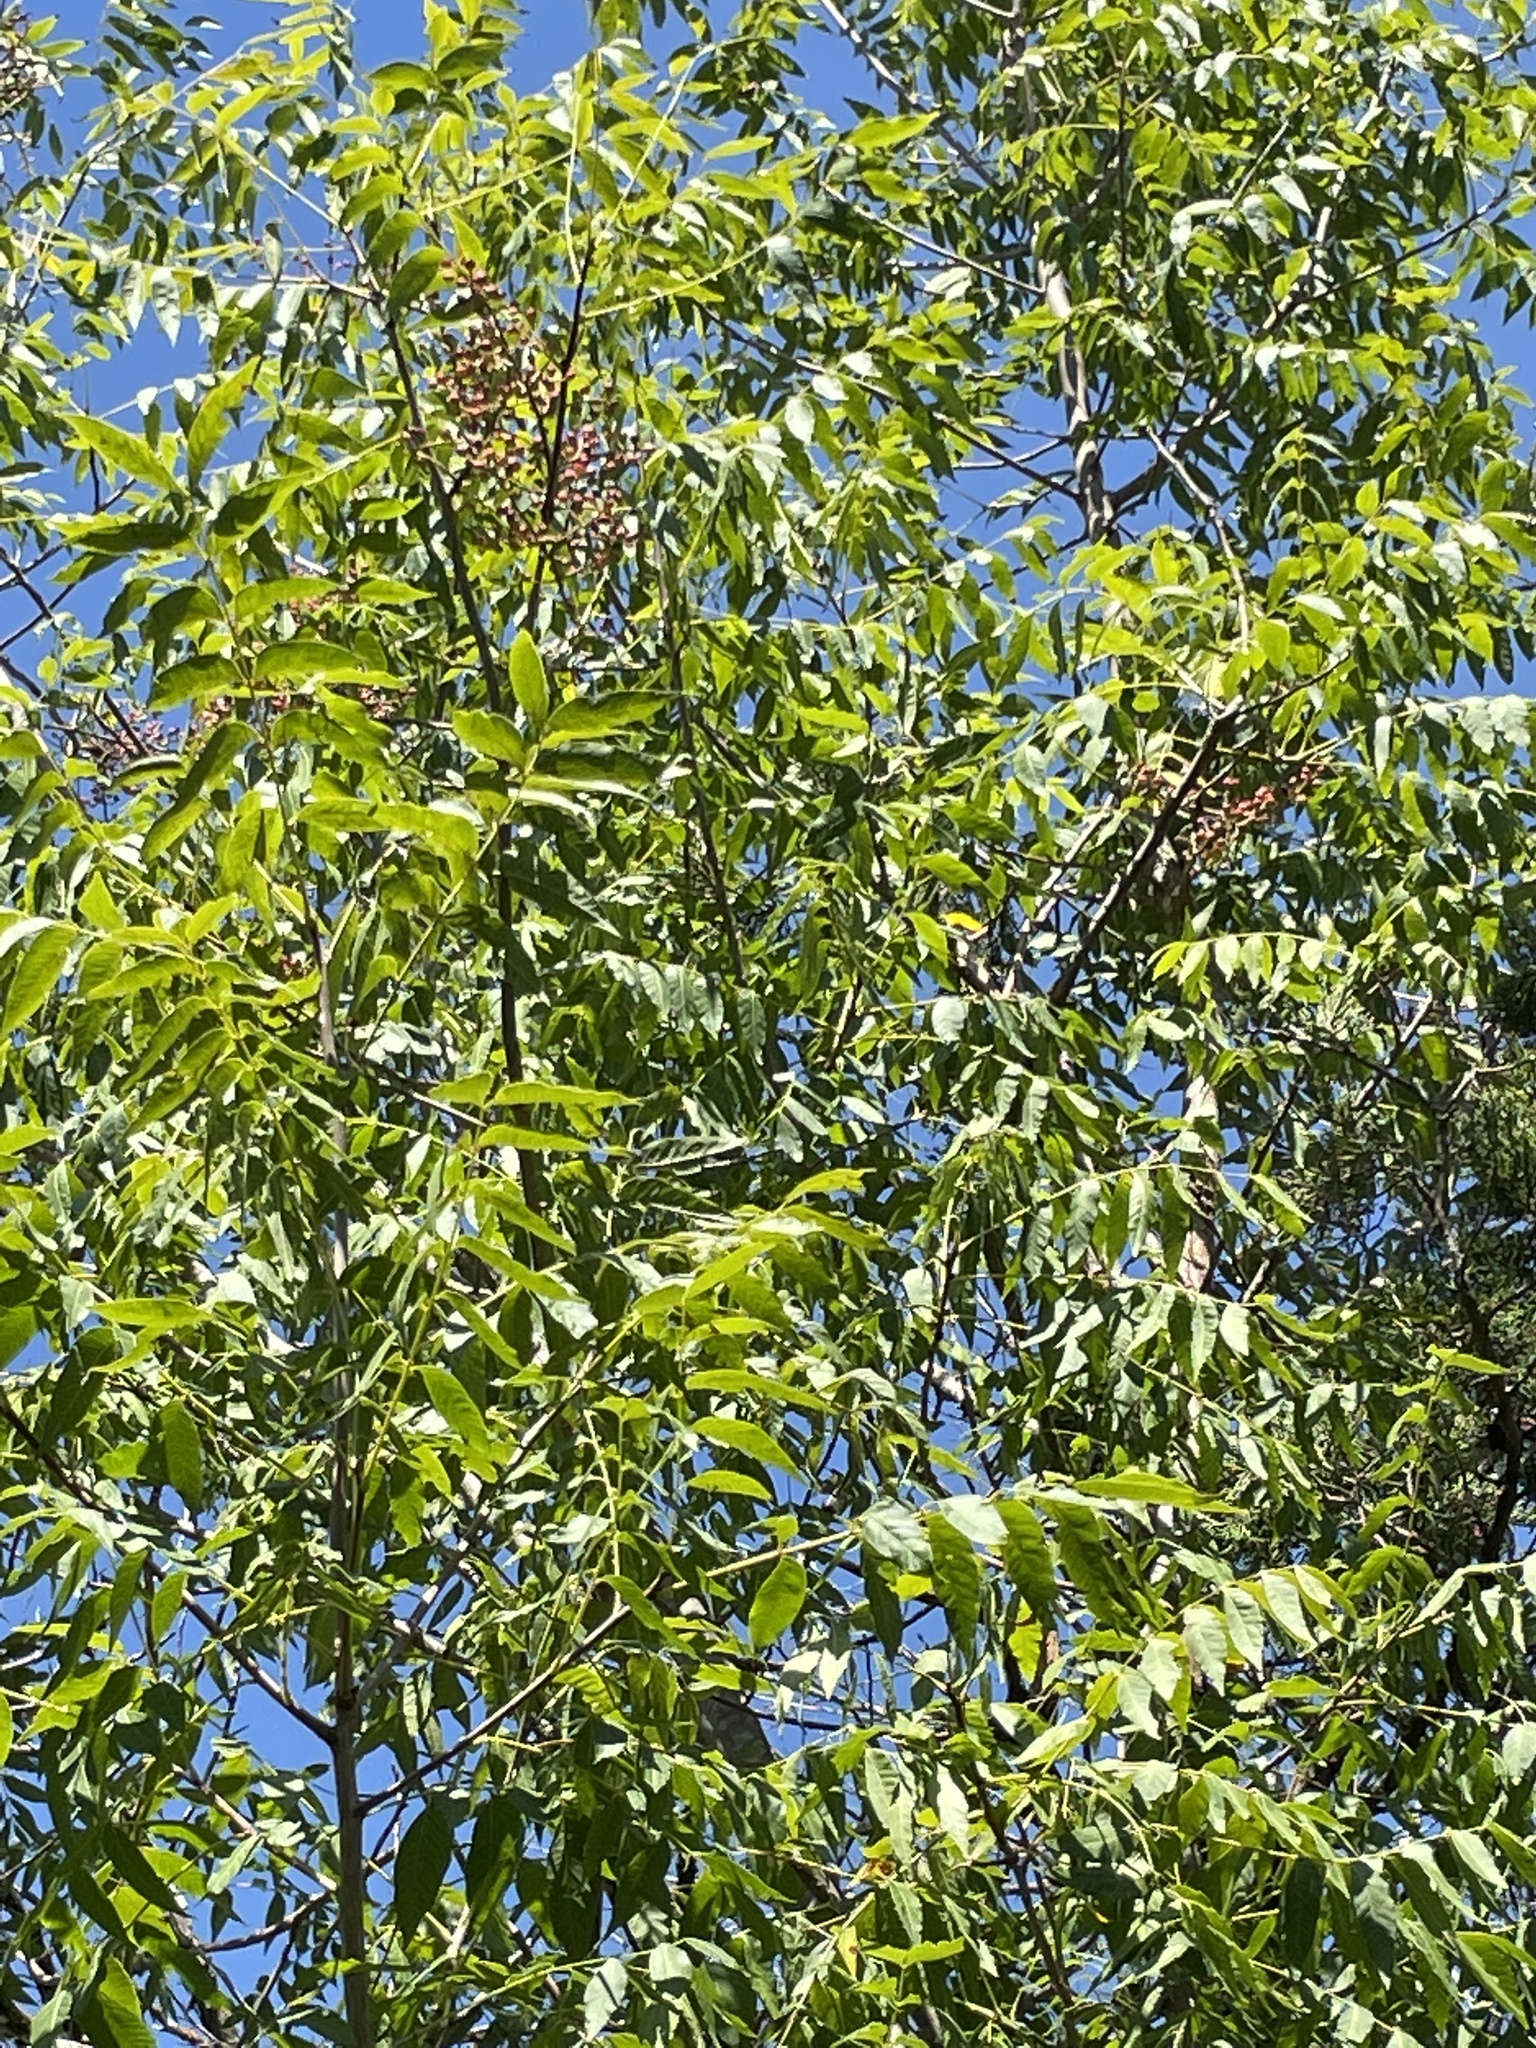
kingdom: Plantae
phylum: Tracheophyta
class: Magnoliopsida
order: Sapindales
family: Anacardiaceae
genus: Pistacia
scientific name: Pistacia chinensis
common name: Chinese pistache
